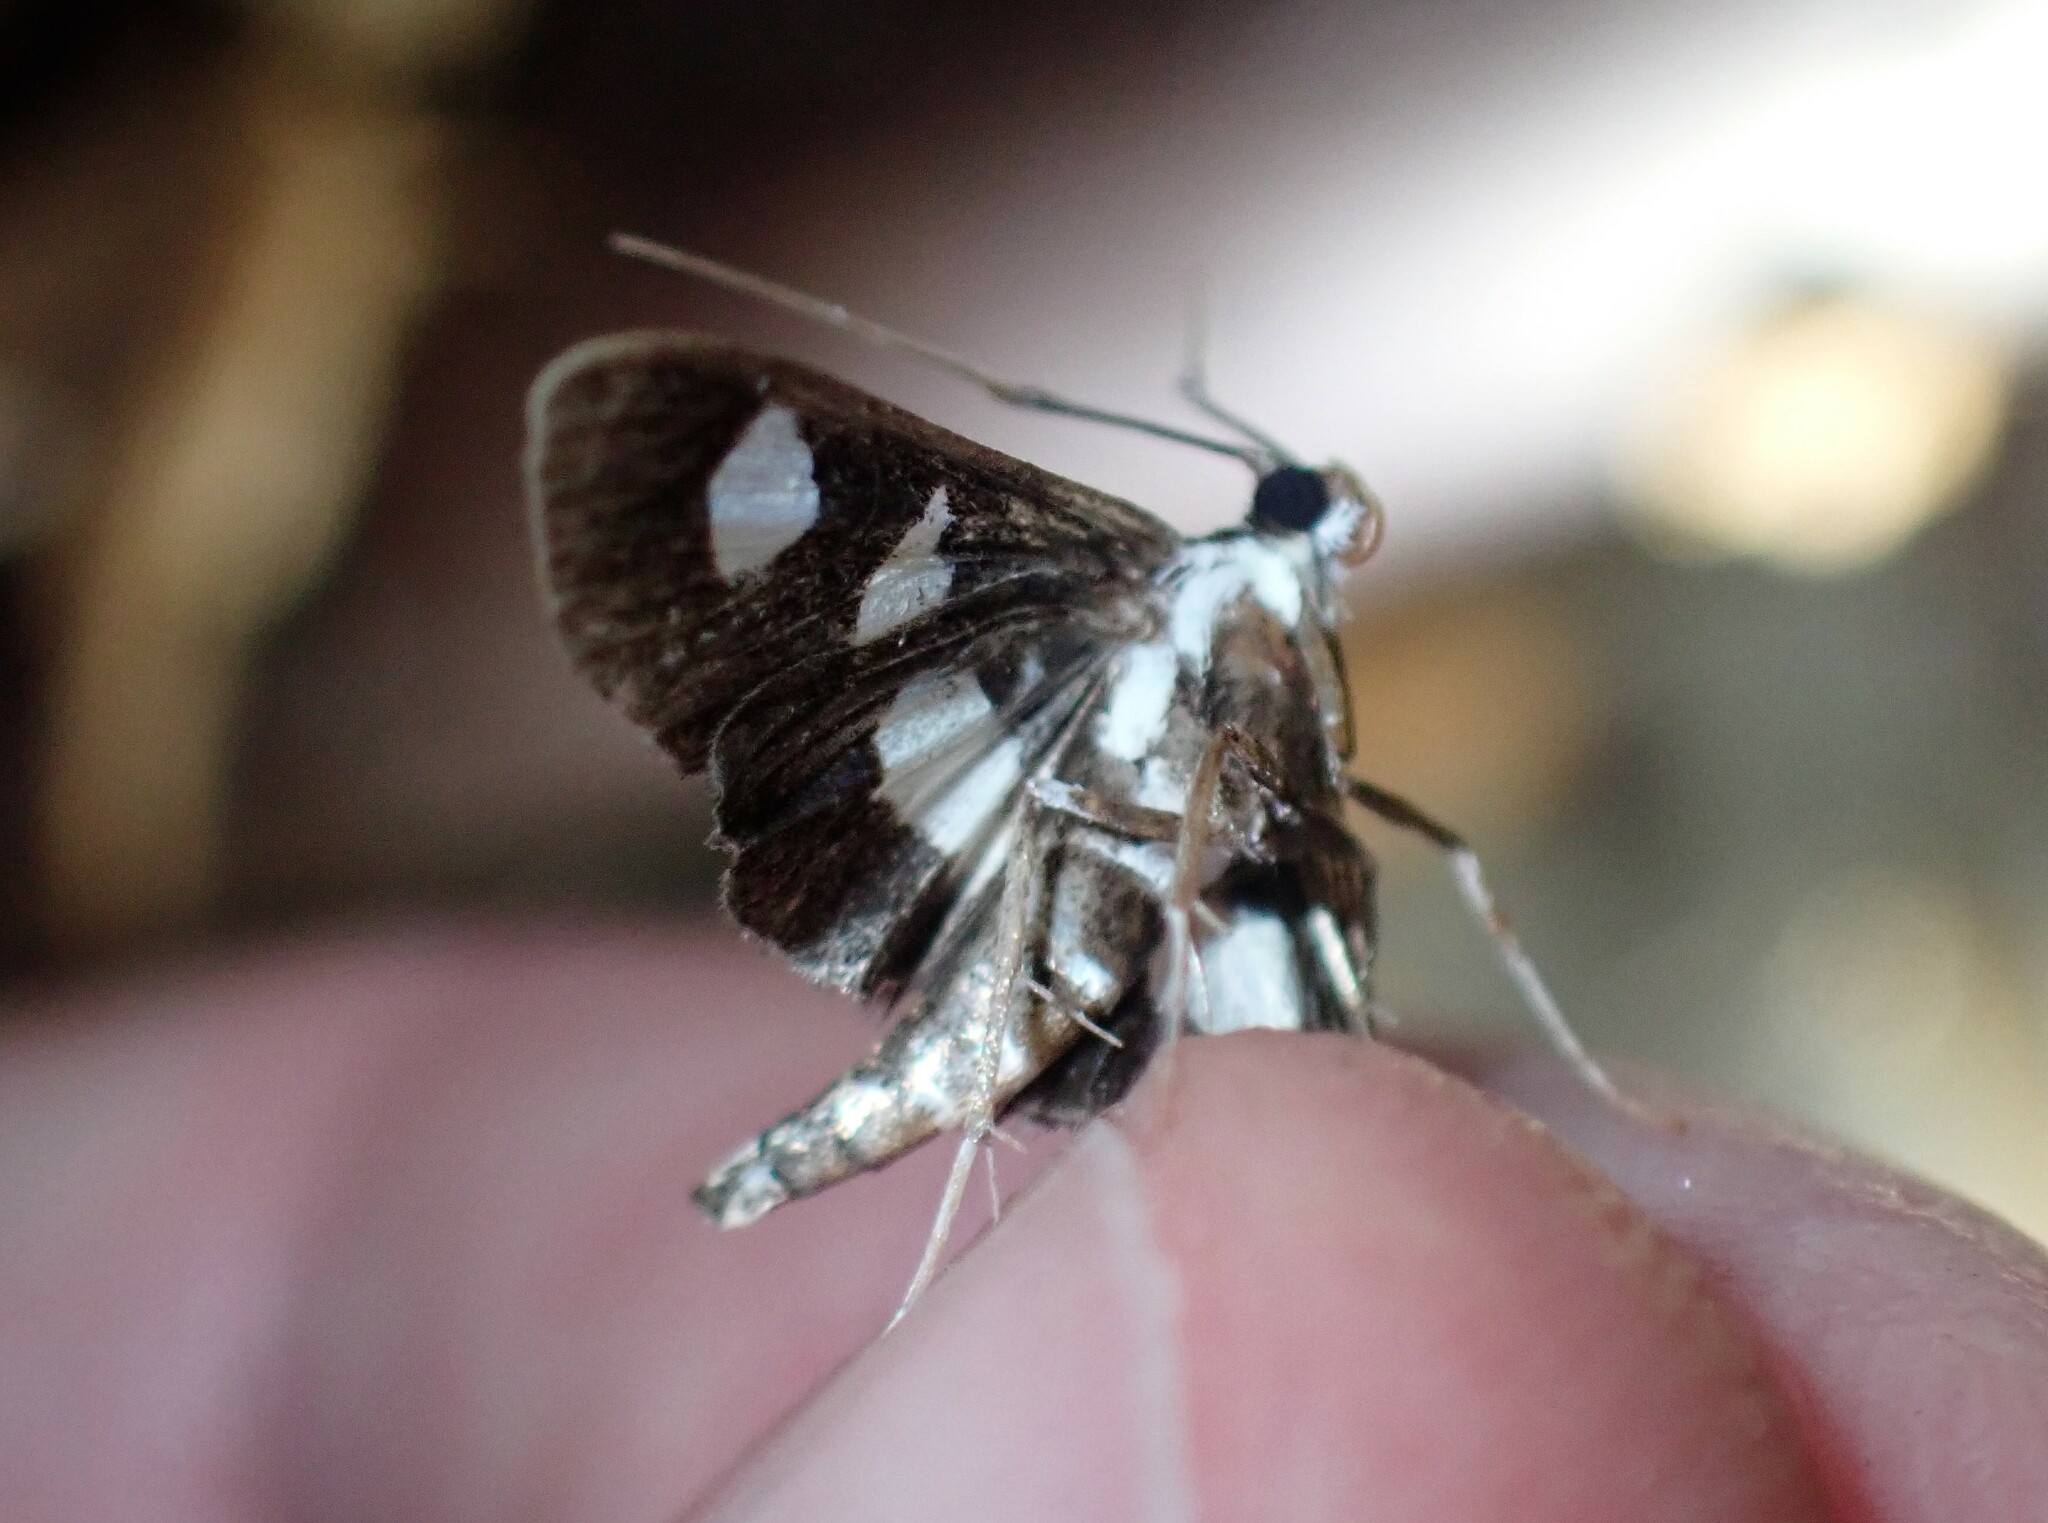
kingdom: Animalia
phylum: Arthropoda
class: Insecta
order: Lepidoptera
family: Crambidae
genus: Desmia
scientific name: Desmia funeralis
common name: Grape leaf folder moth
